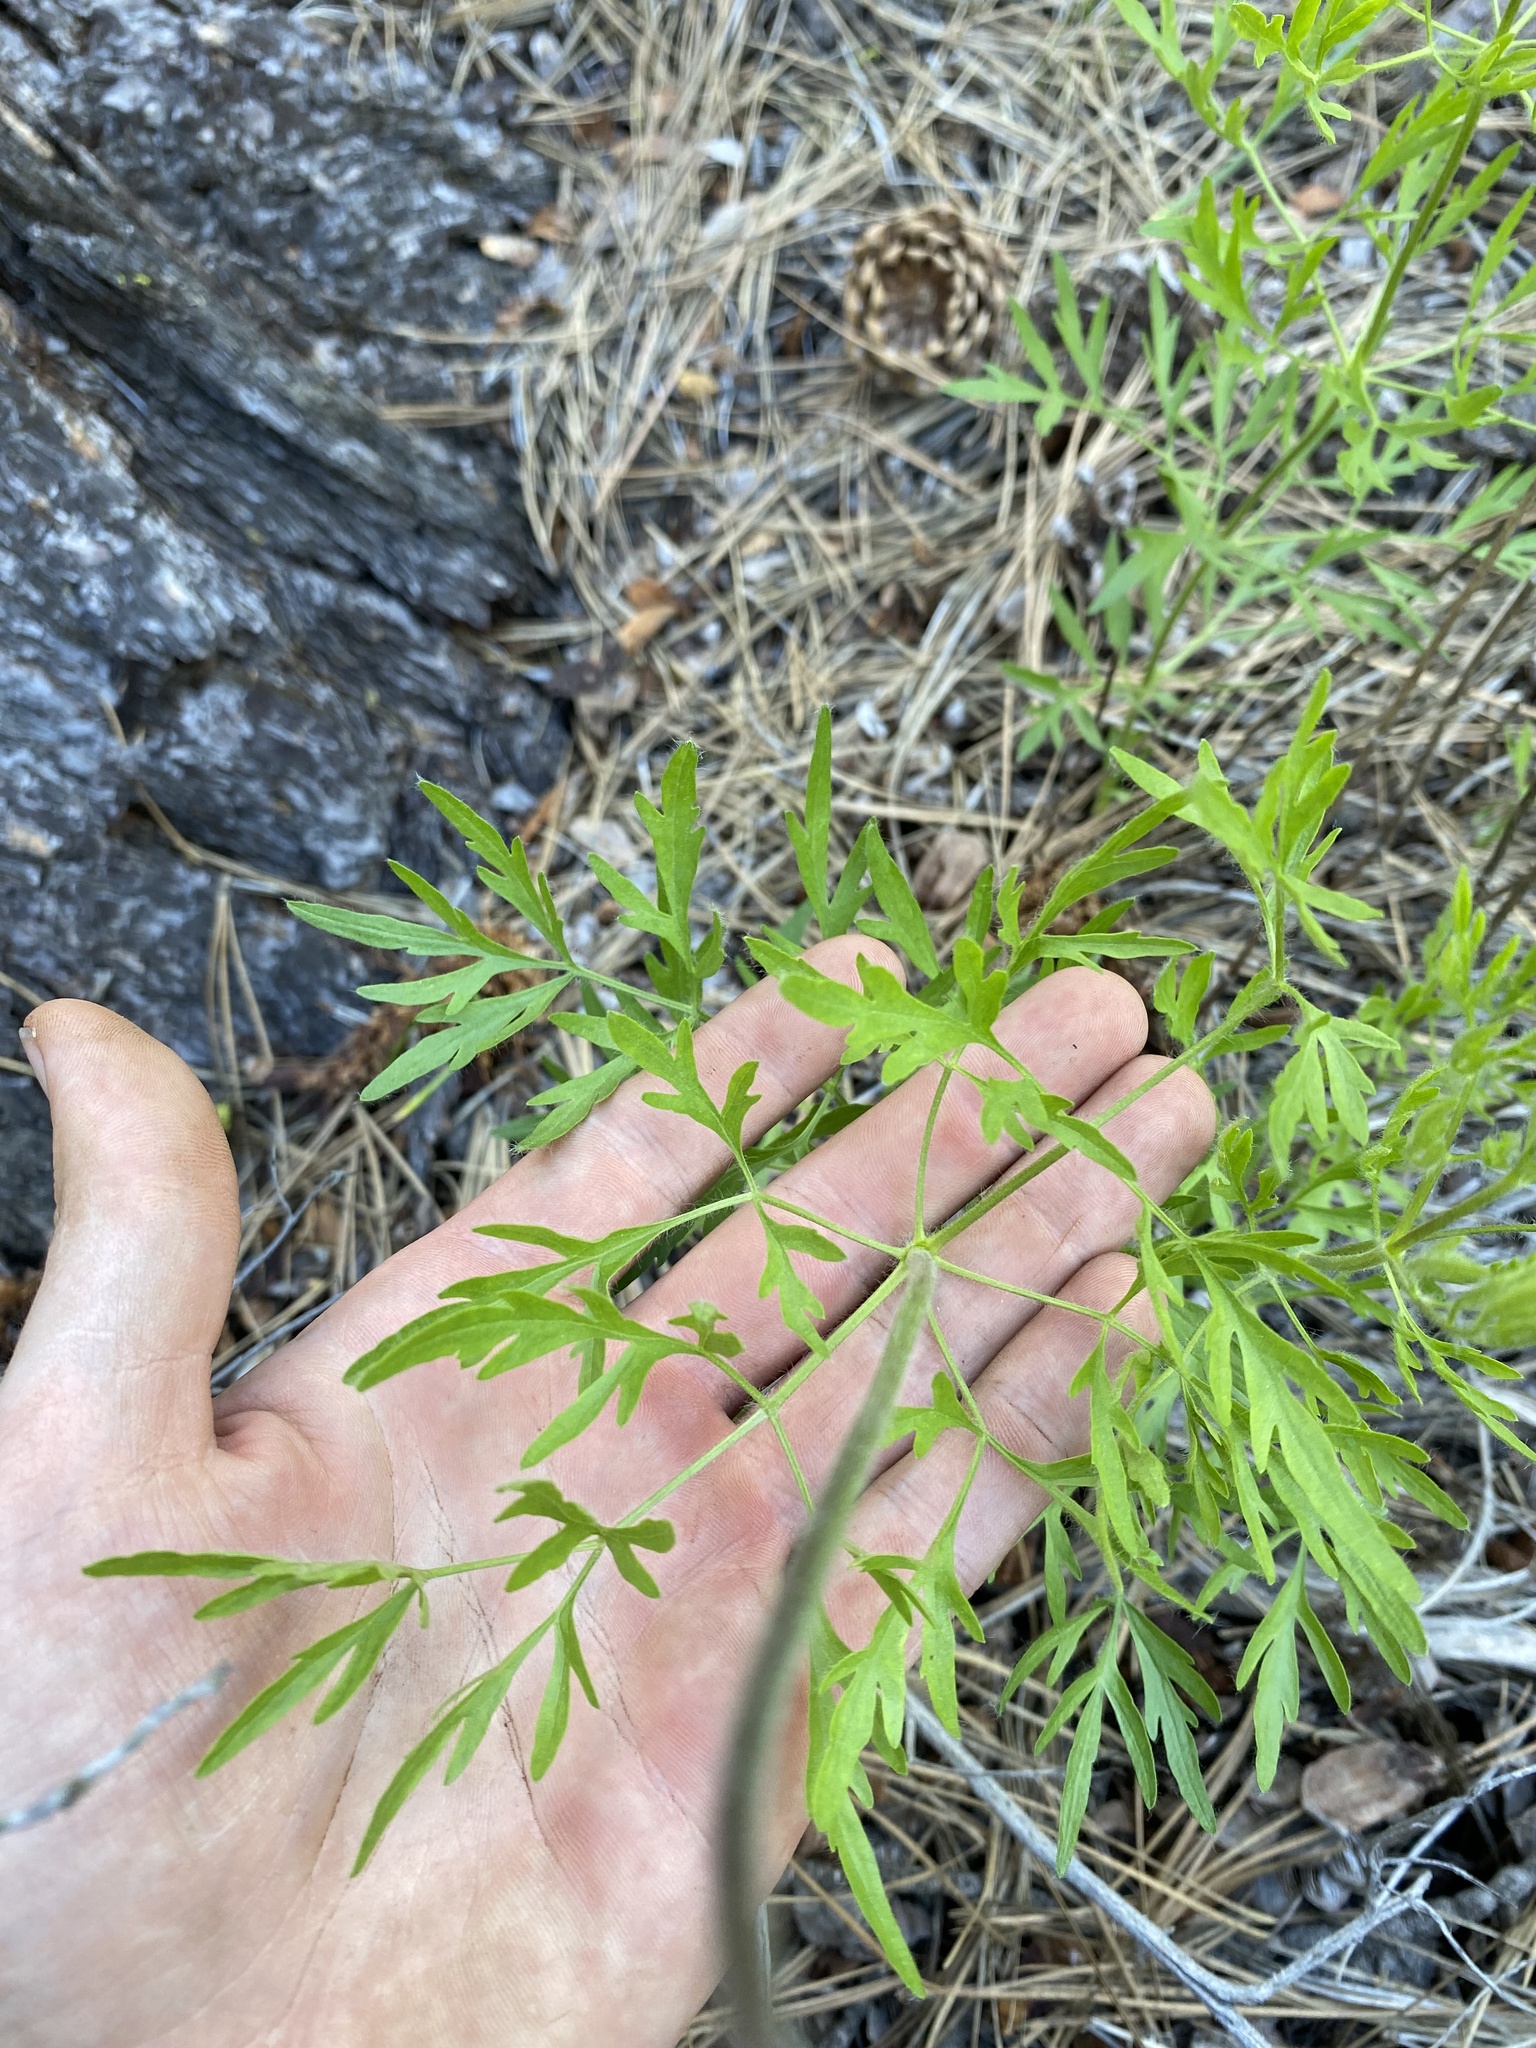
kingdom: Plantae
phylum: Tracheophyta
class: Magnoliopsida
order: Ranunculales
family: Ranunculaceae
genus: Clematis
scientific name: Clematis hirsutissima
